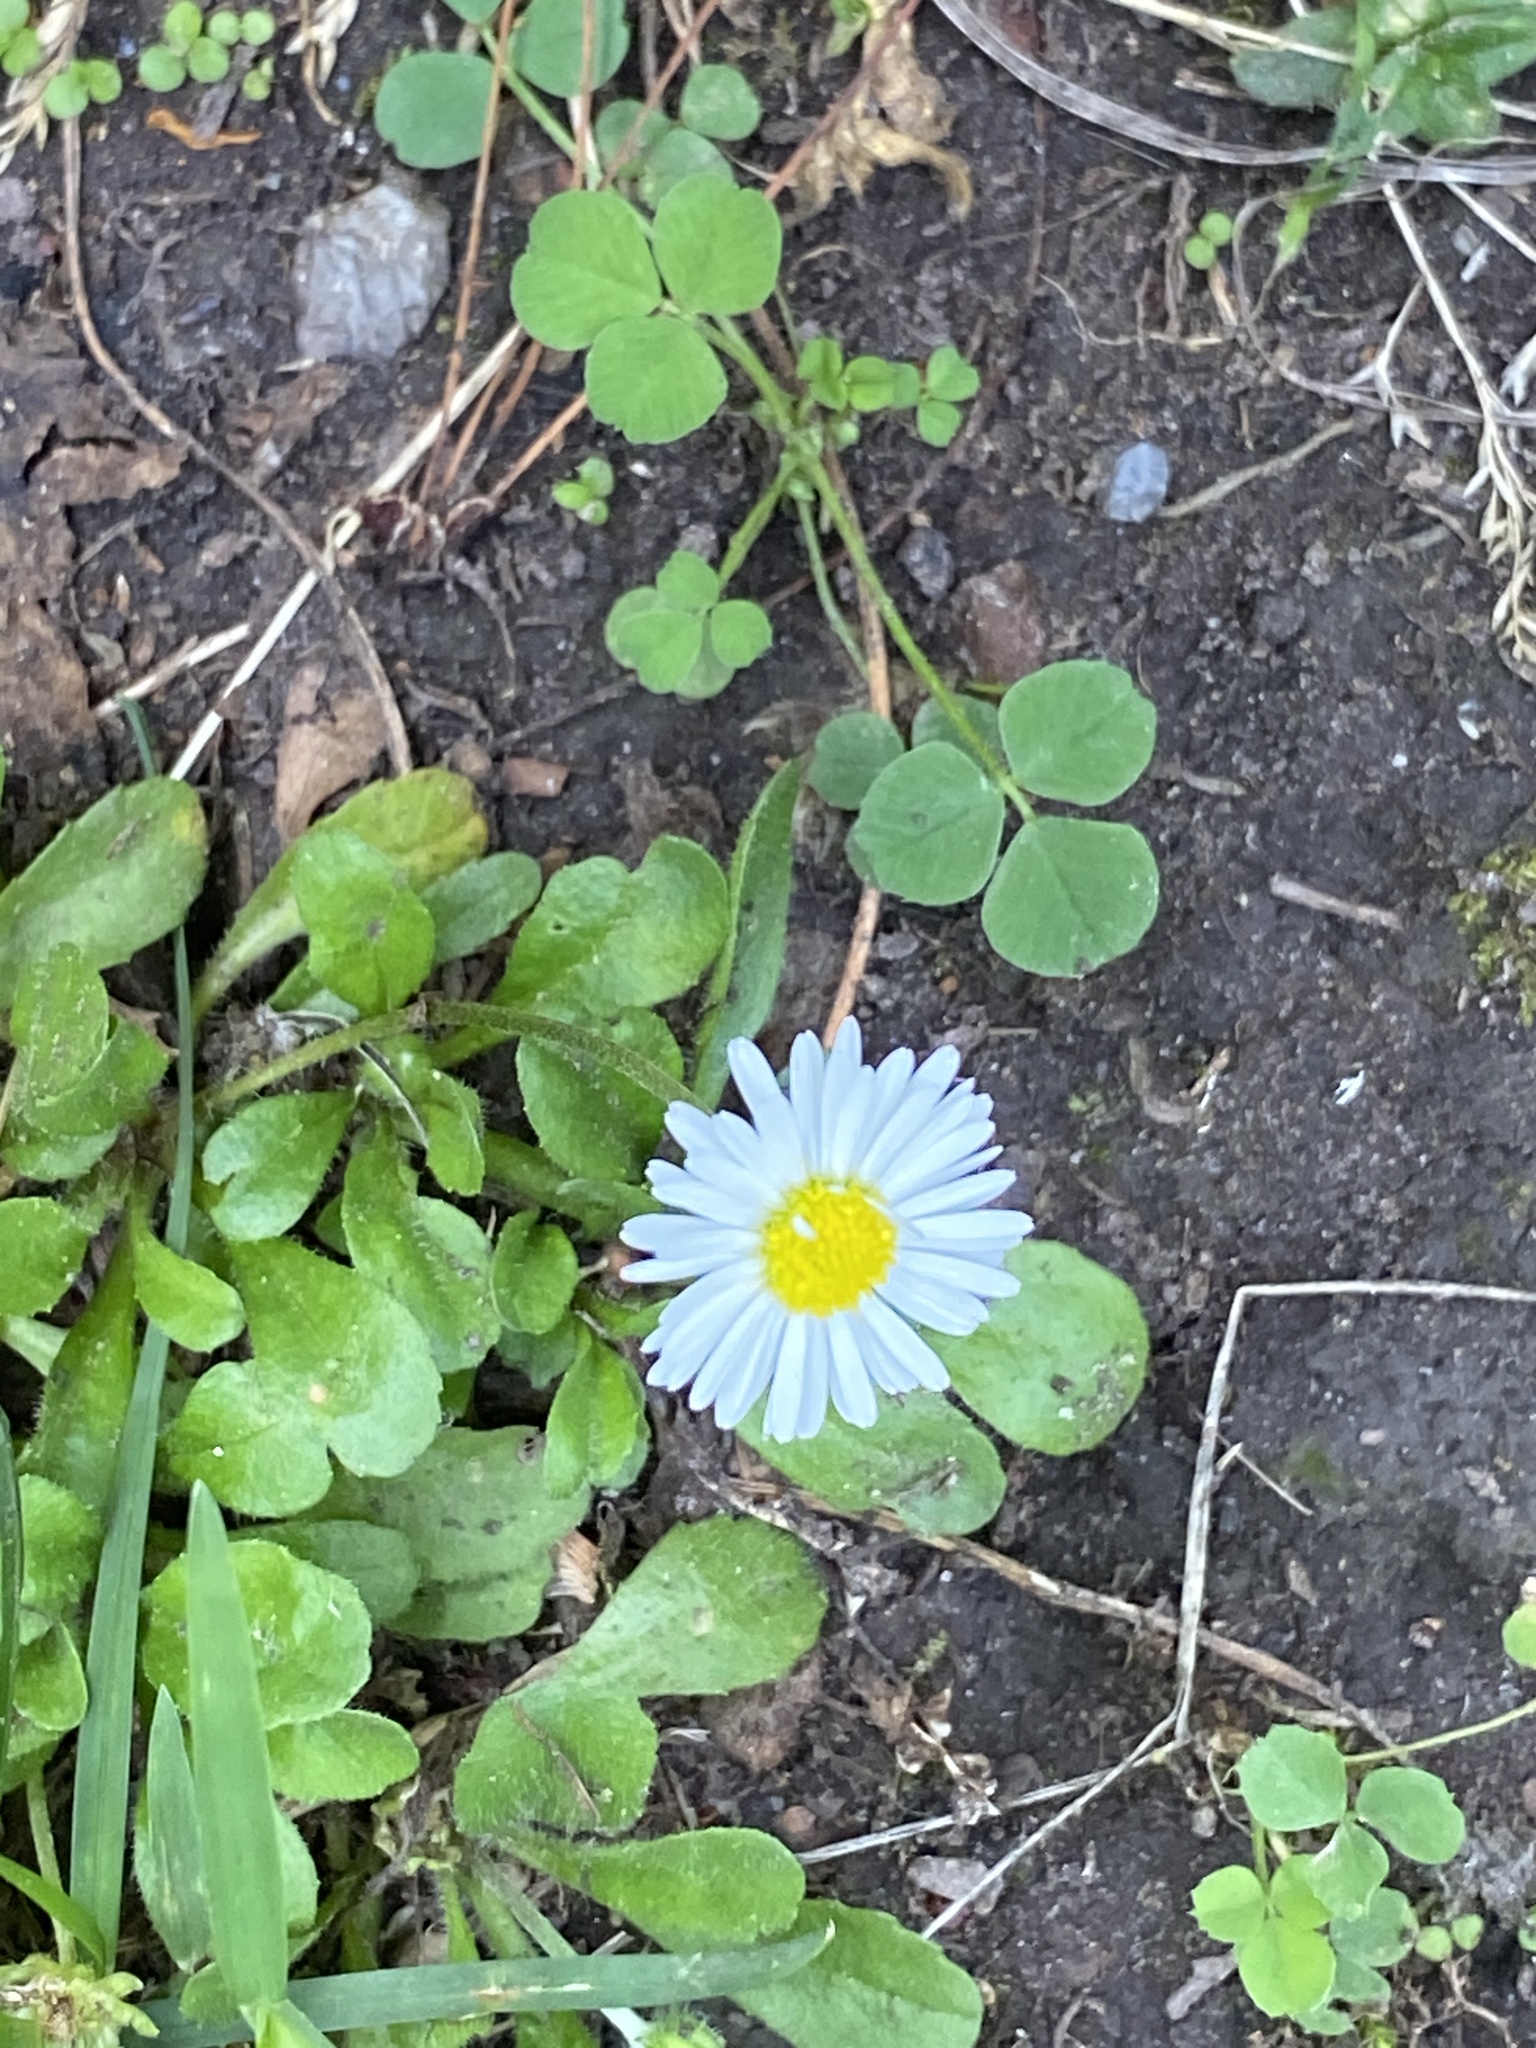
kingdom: Plantae
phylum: Tracheophyta
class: Magnoliopsida
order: Asterales
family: Asteraceae
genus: Bellis
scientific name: Bellis perennis
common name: Lawndaisy
